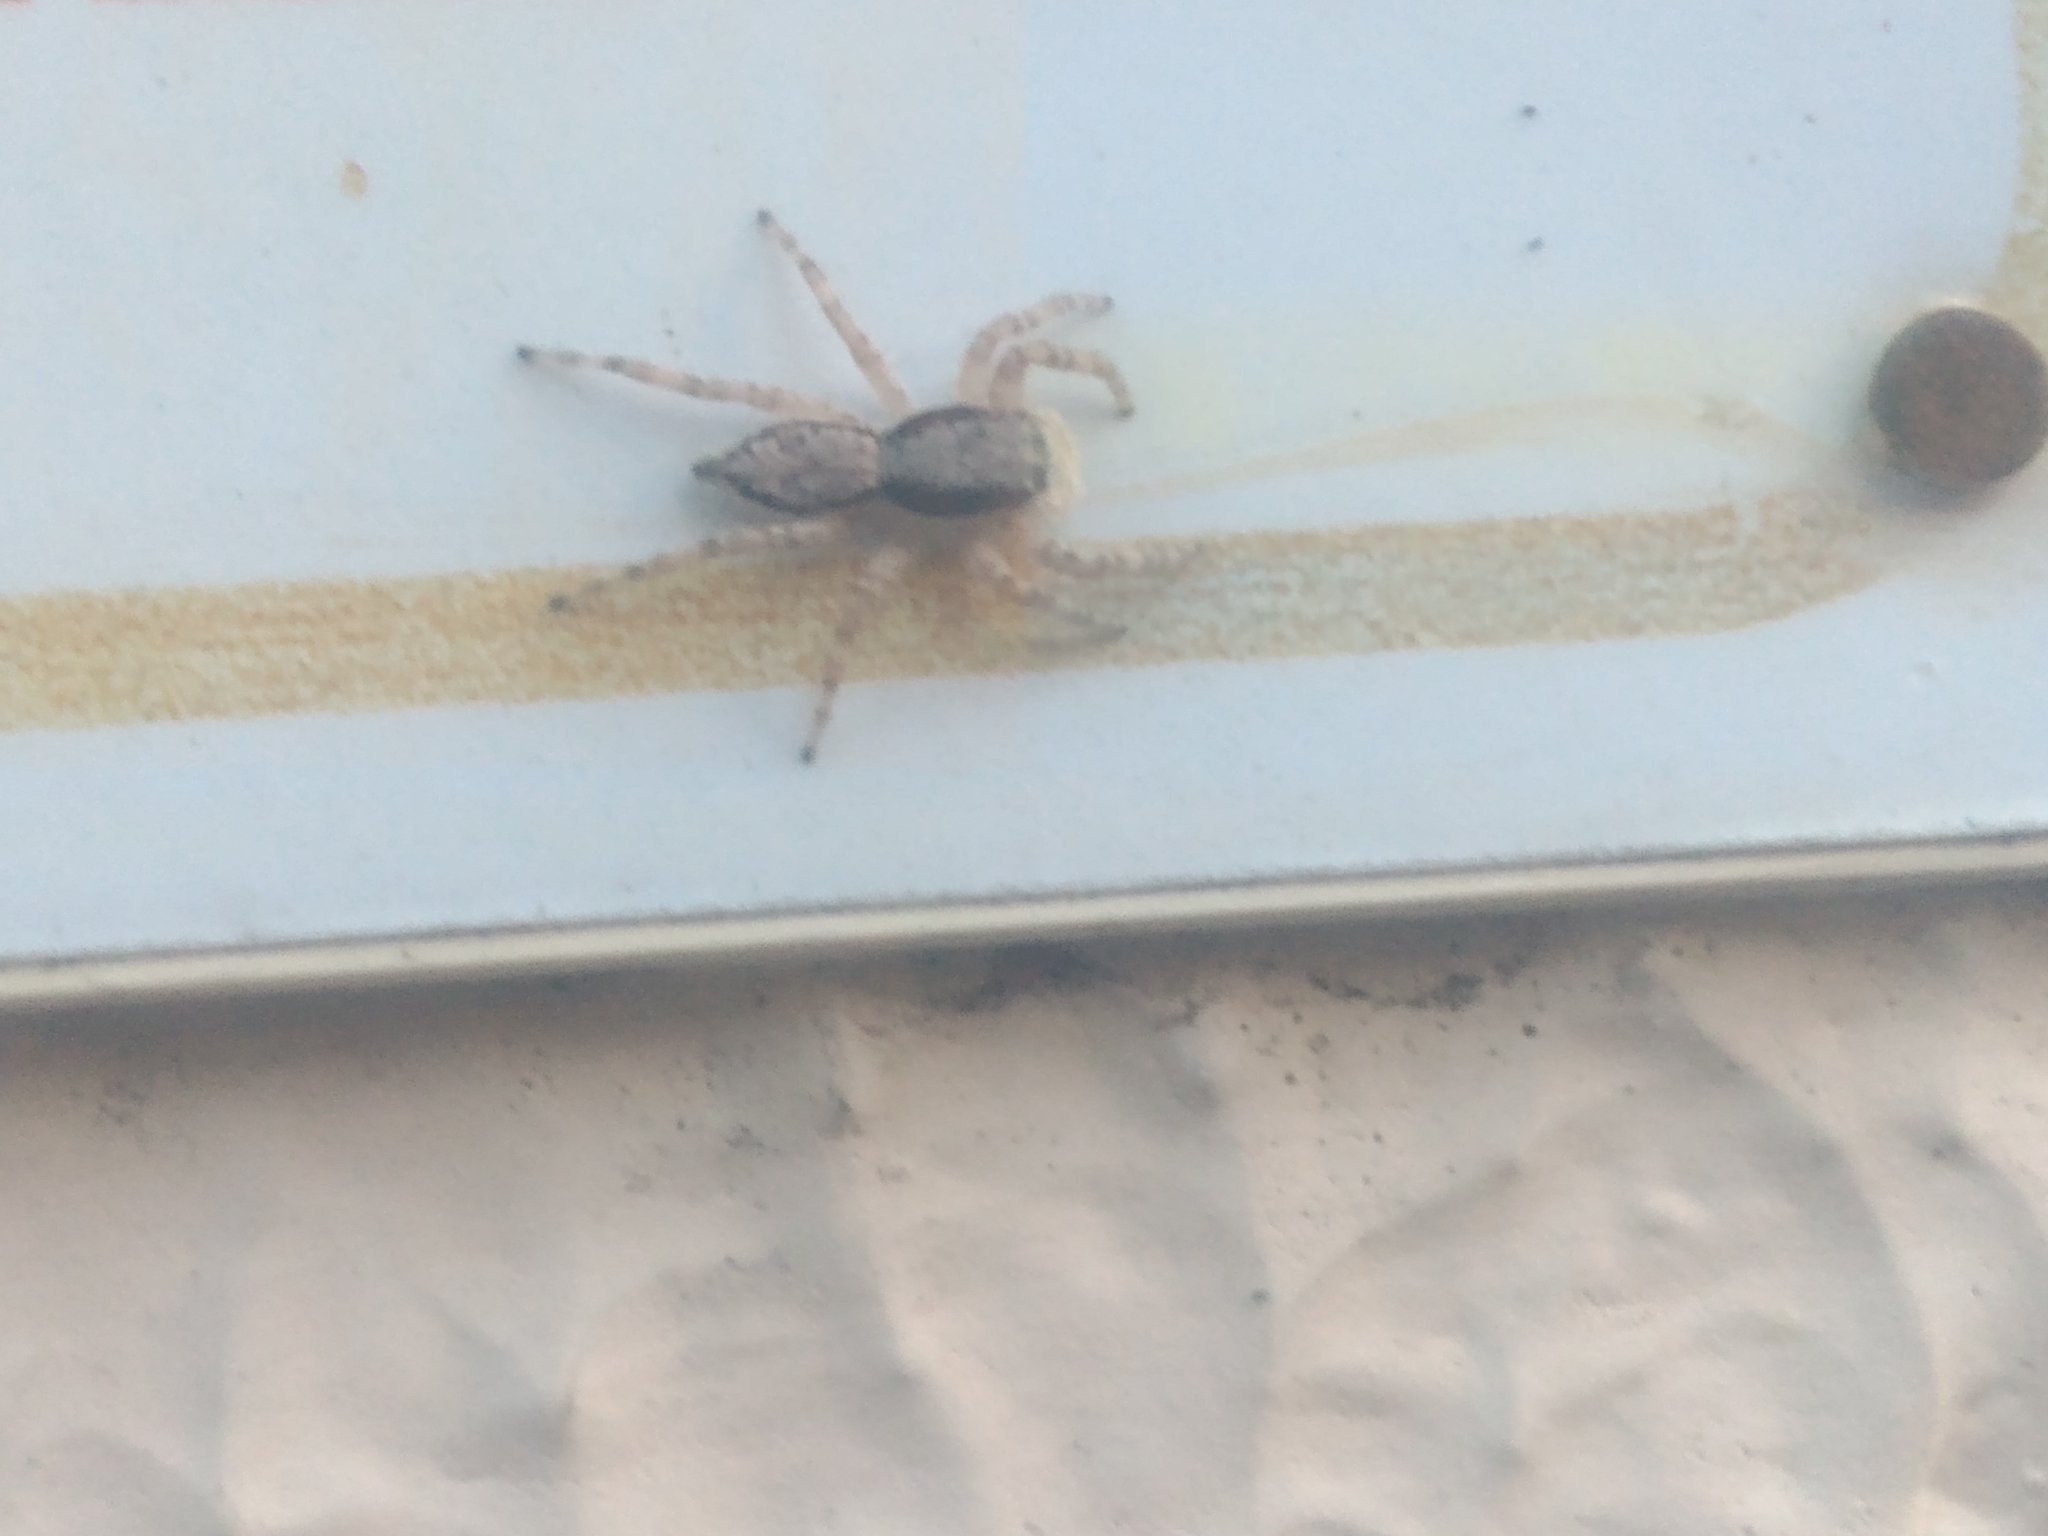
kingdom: Animalia
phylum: Arthropoda
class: Arachnida
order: Araneae
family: Salticidae
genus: Menemerus
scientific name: Menemerus bivittatus
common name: Gray wall jumper
